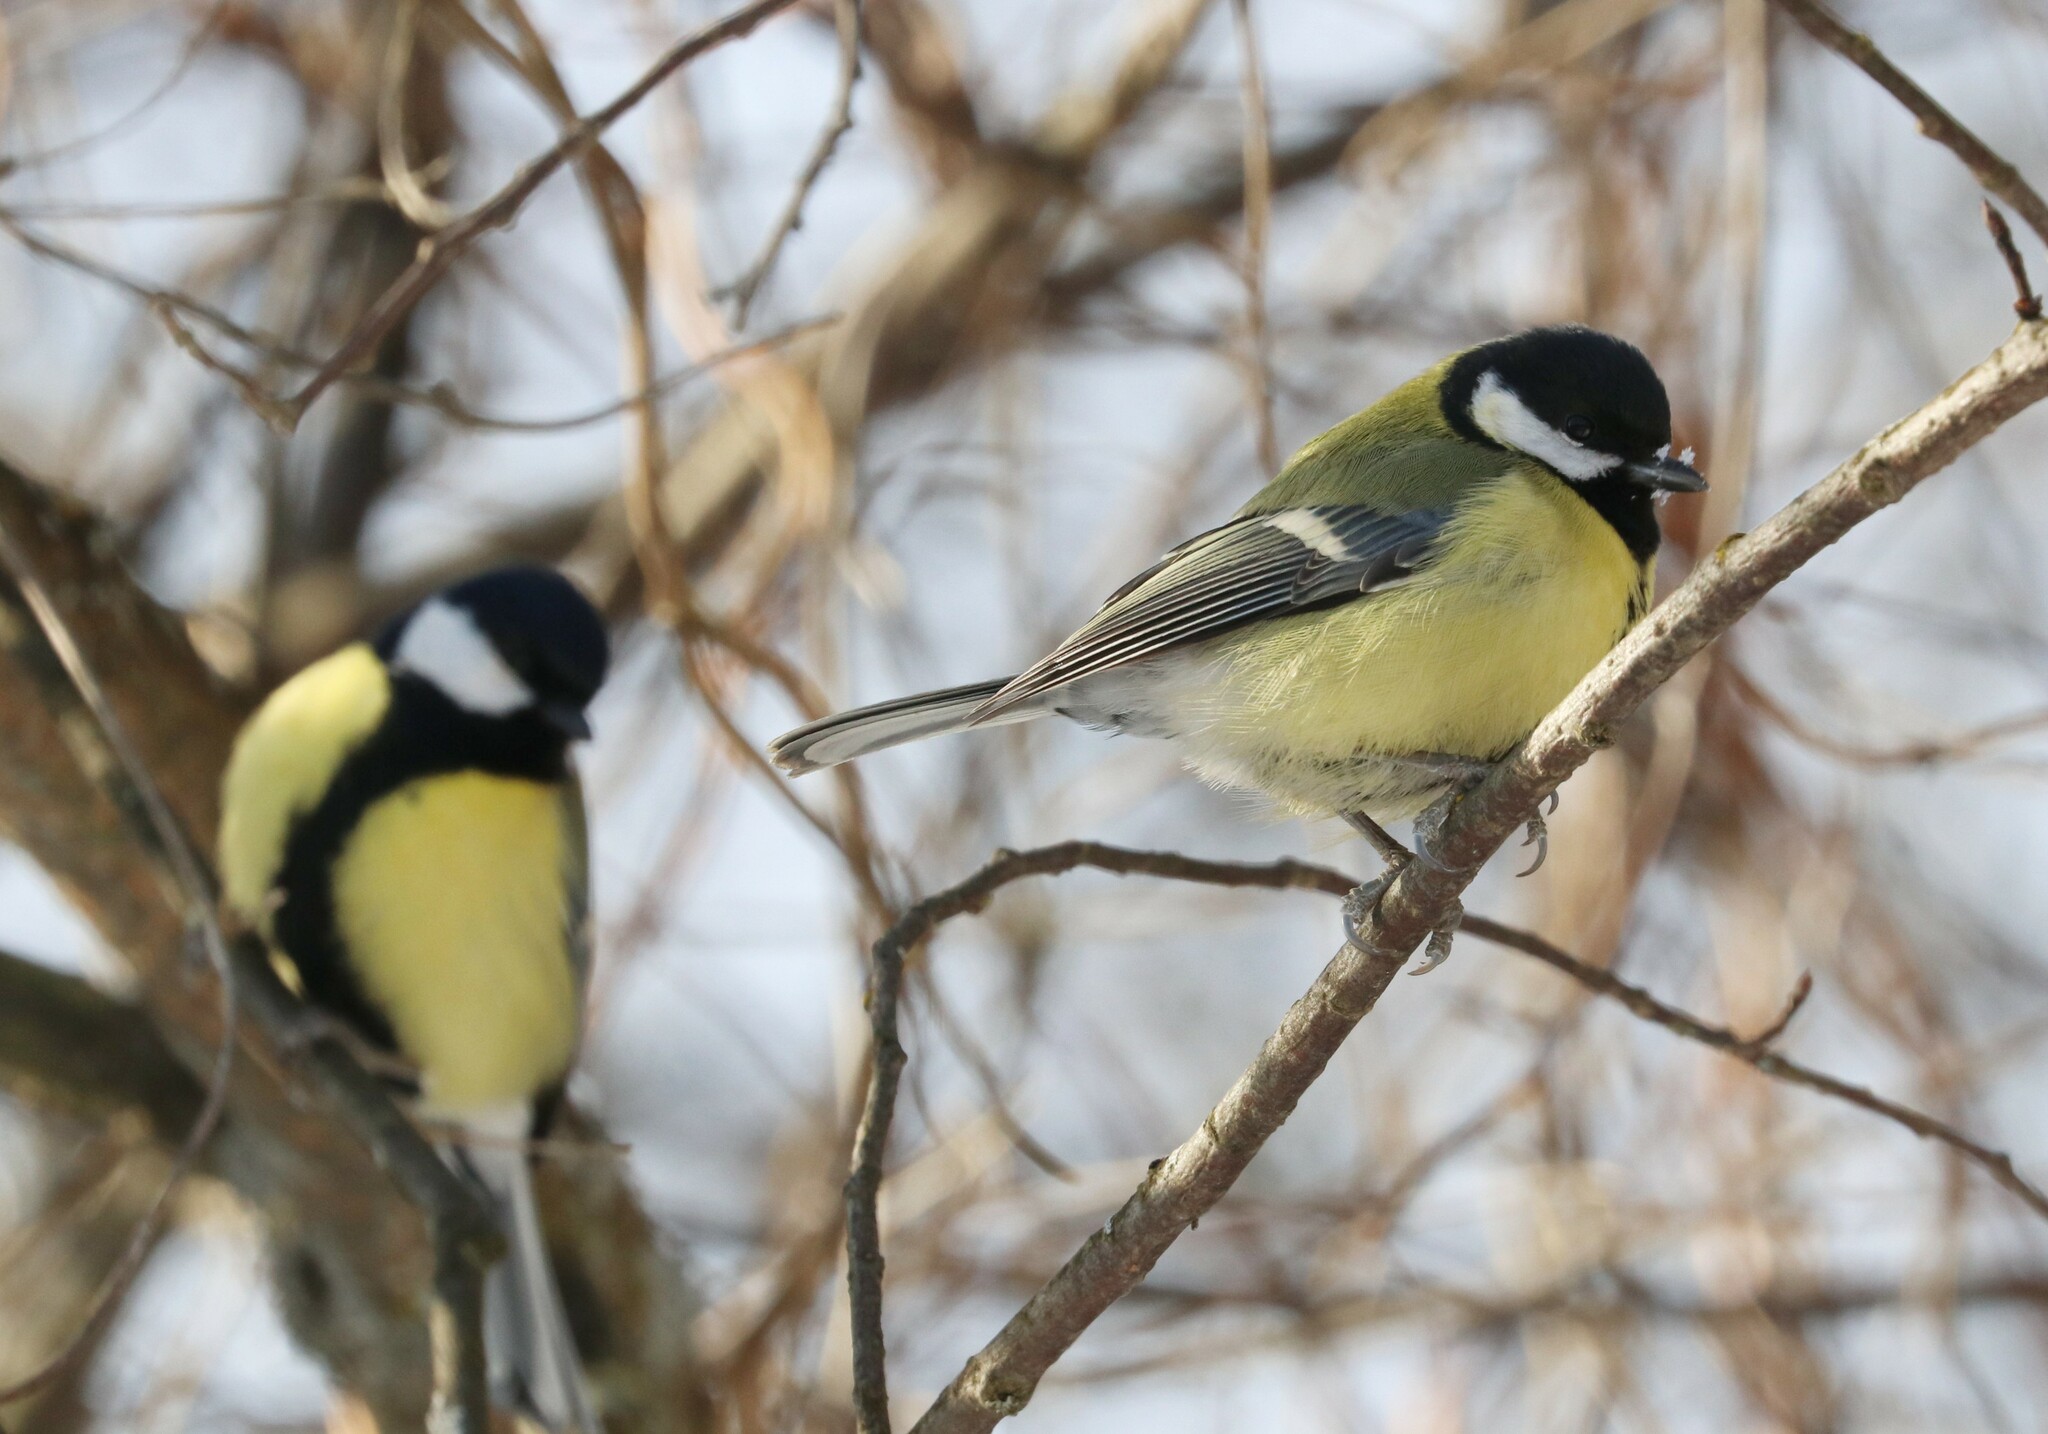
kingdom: Animalia
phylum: Chordata
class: Aves
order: Passeriformes
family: Paridae
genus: Parus
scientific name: Parus major
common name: Great tit
